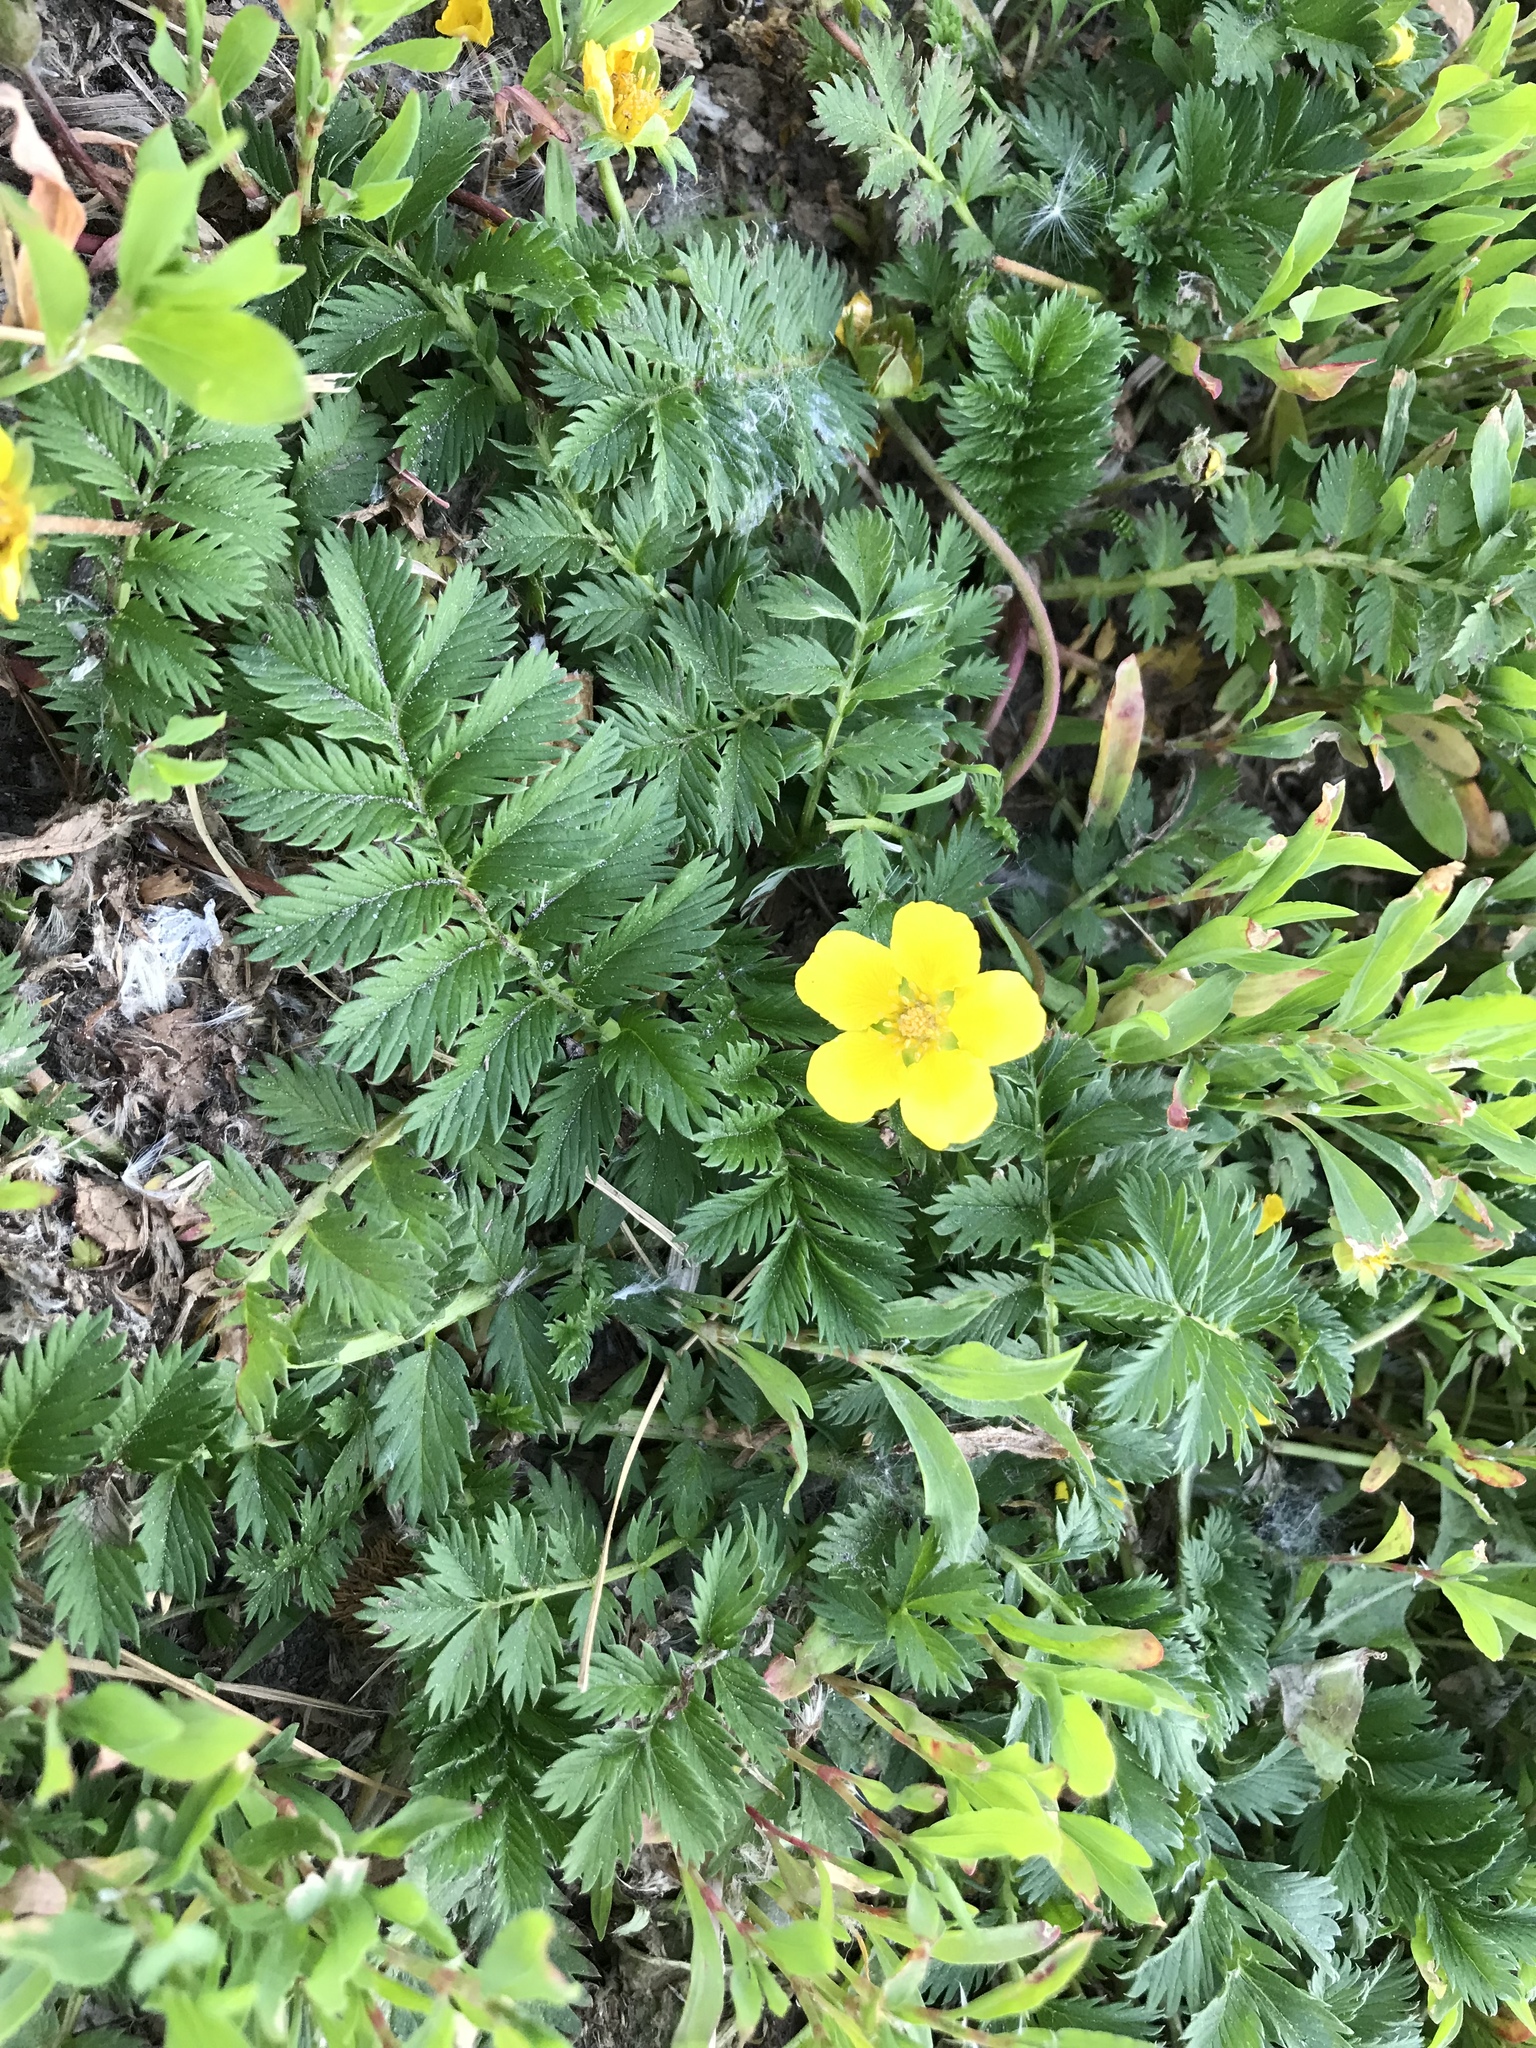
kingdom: Plantae
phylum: Tracheophyta
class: Magnoliopsida
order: Rosales
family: Rosaceae
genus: Argentina
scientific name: Argentina anserina
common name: Common silverweed
